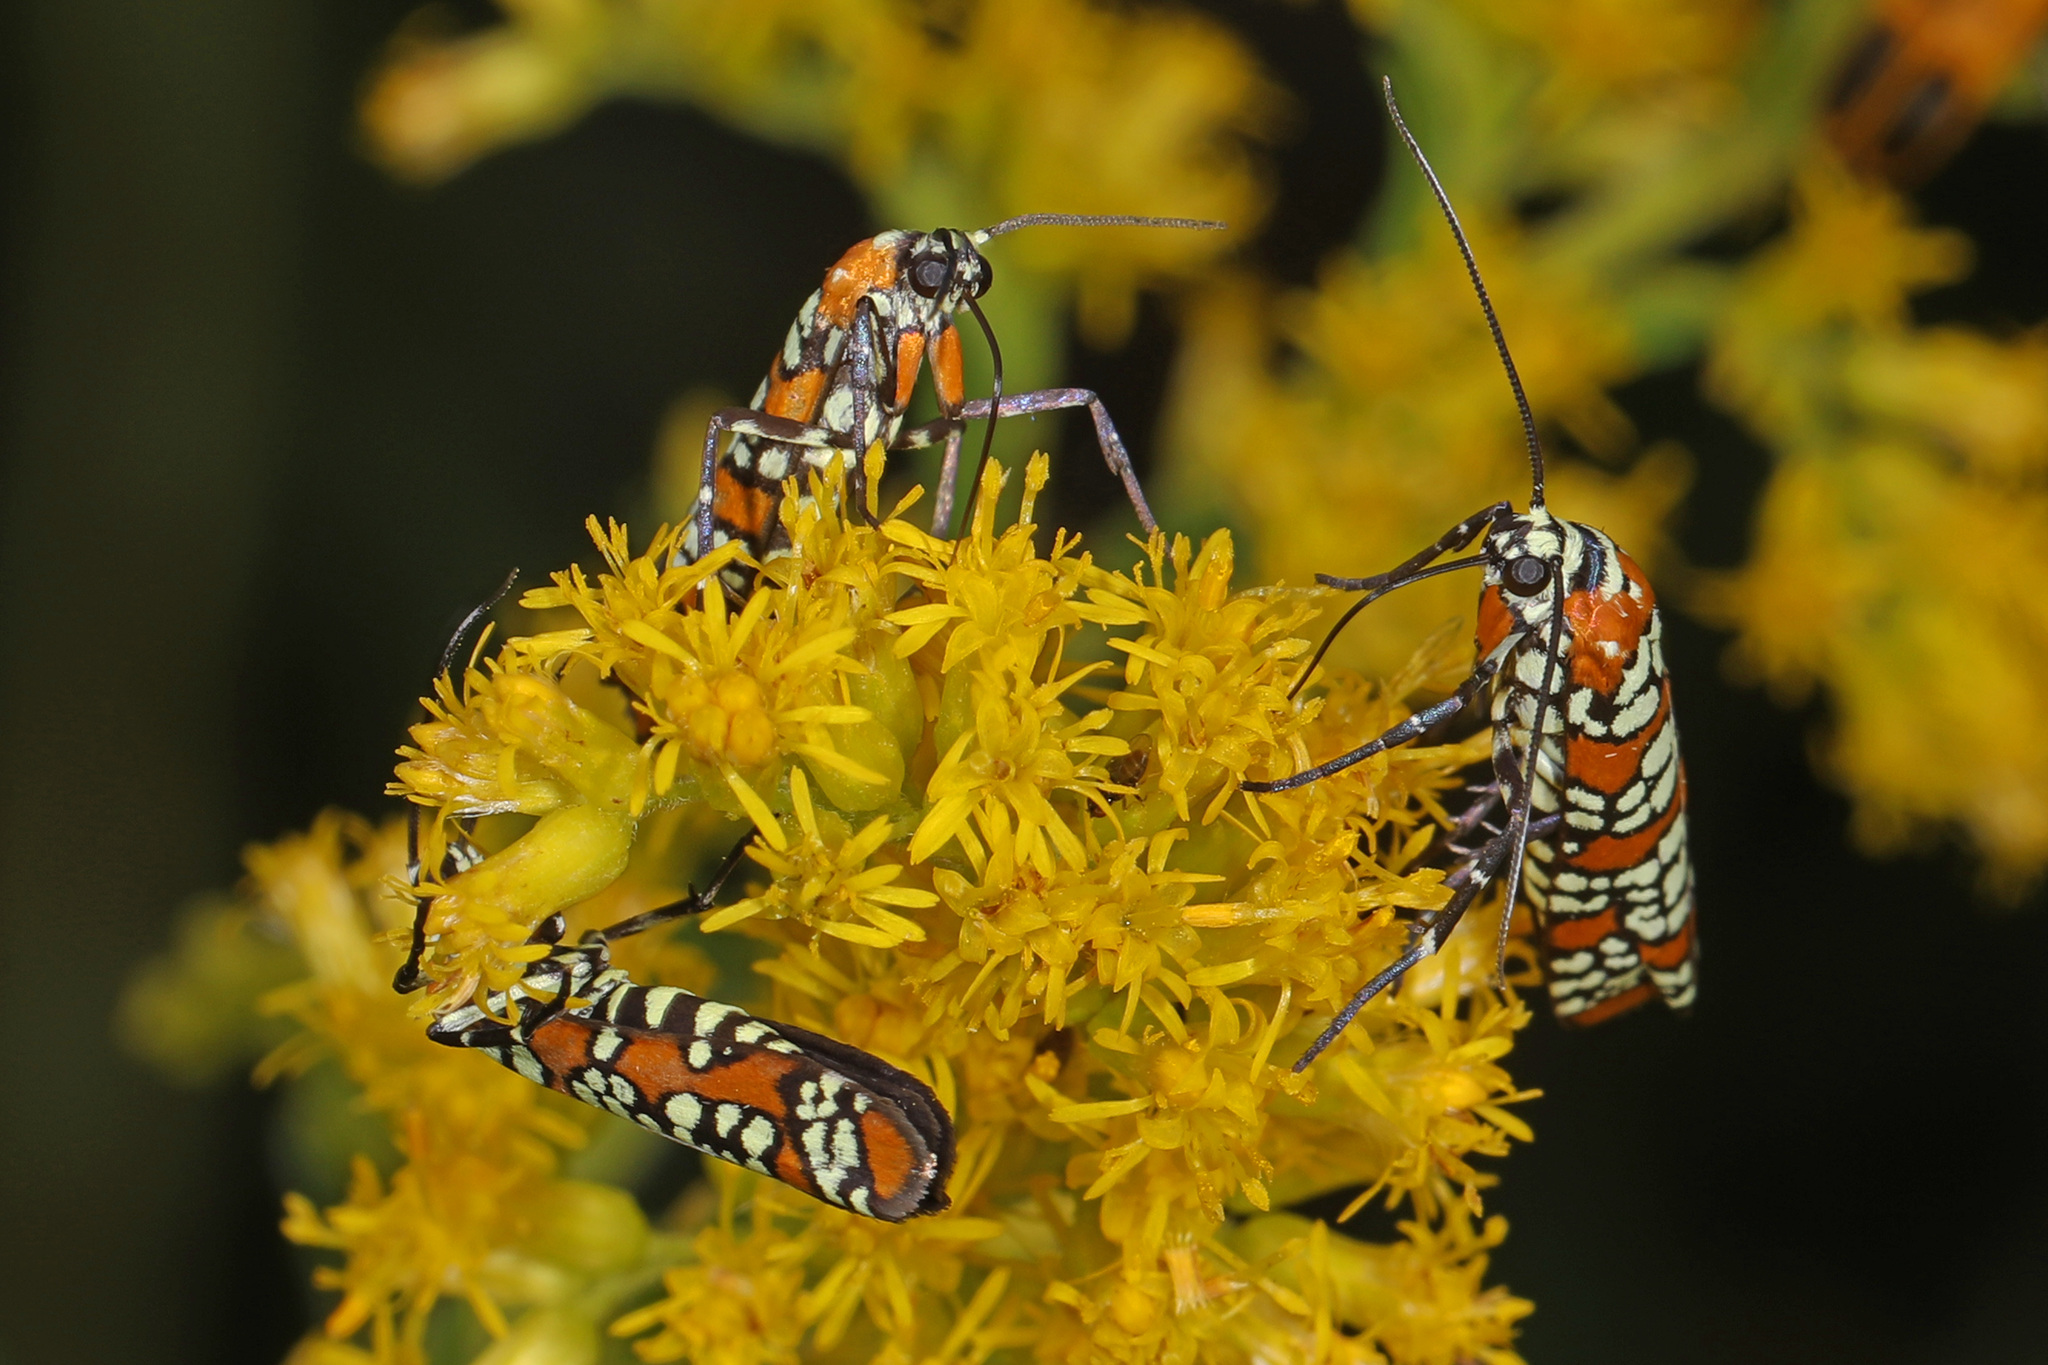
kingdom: Animalia
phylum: Arthropoda
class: Insecta
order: Lepidoptera
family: Attevidae
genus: Atteva
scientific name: Atteva punctella
